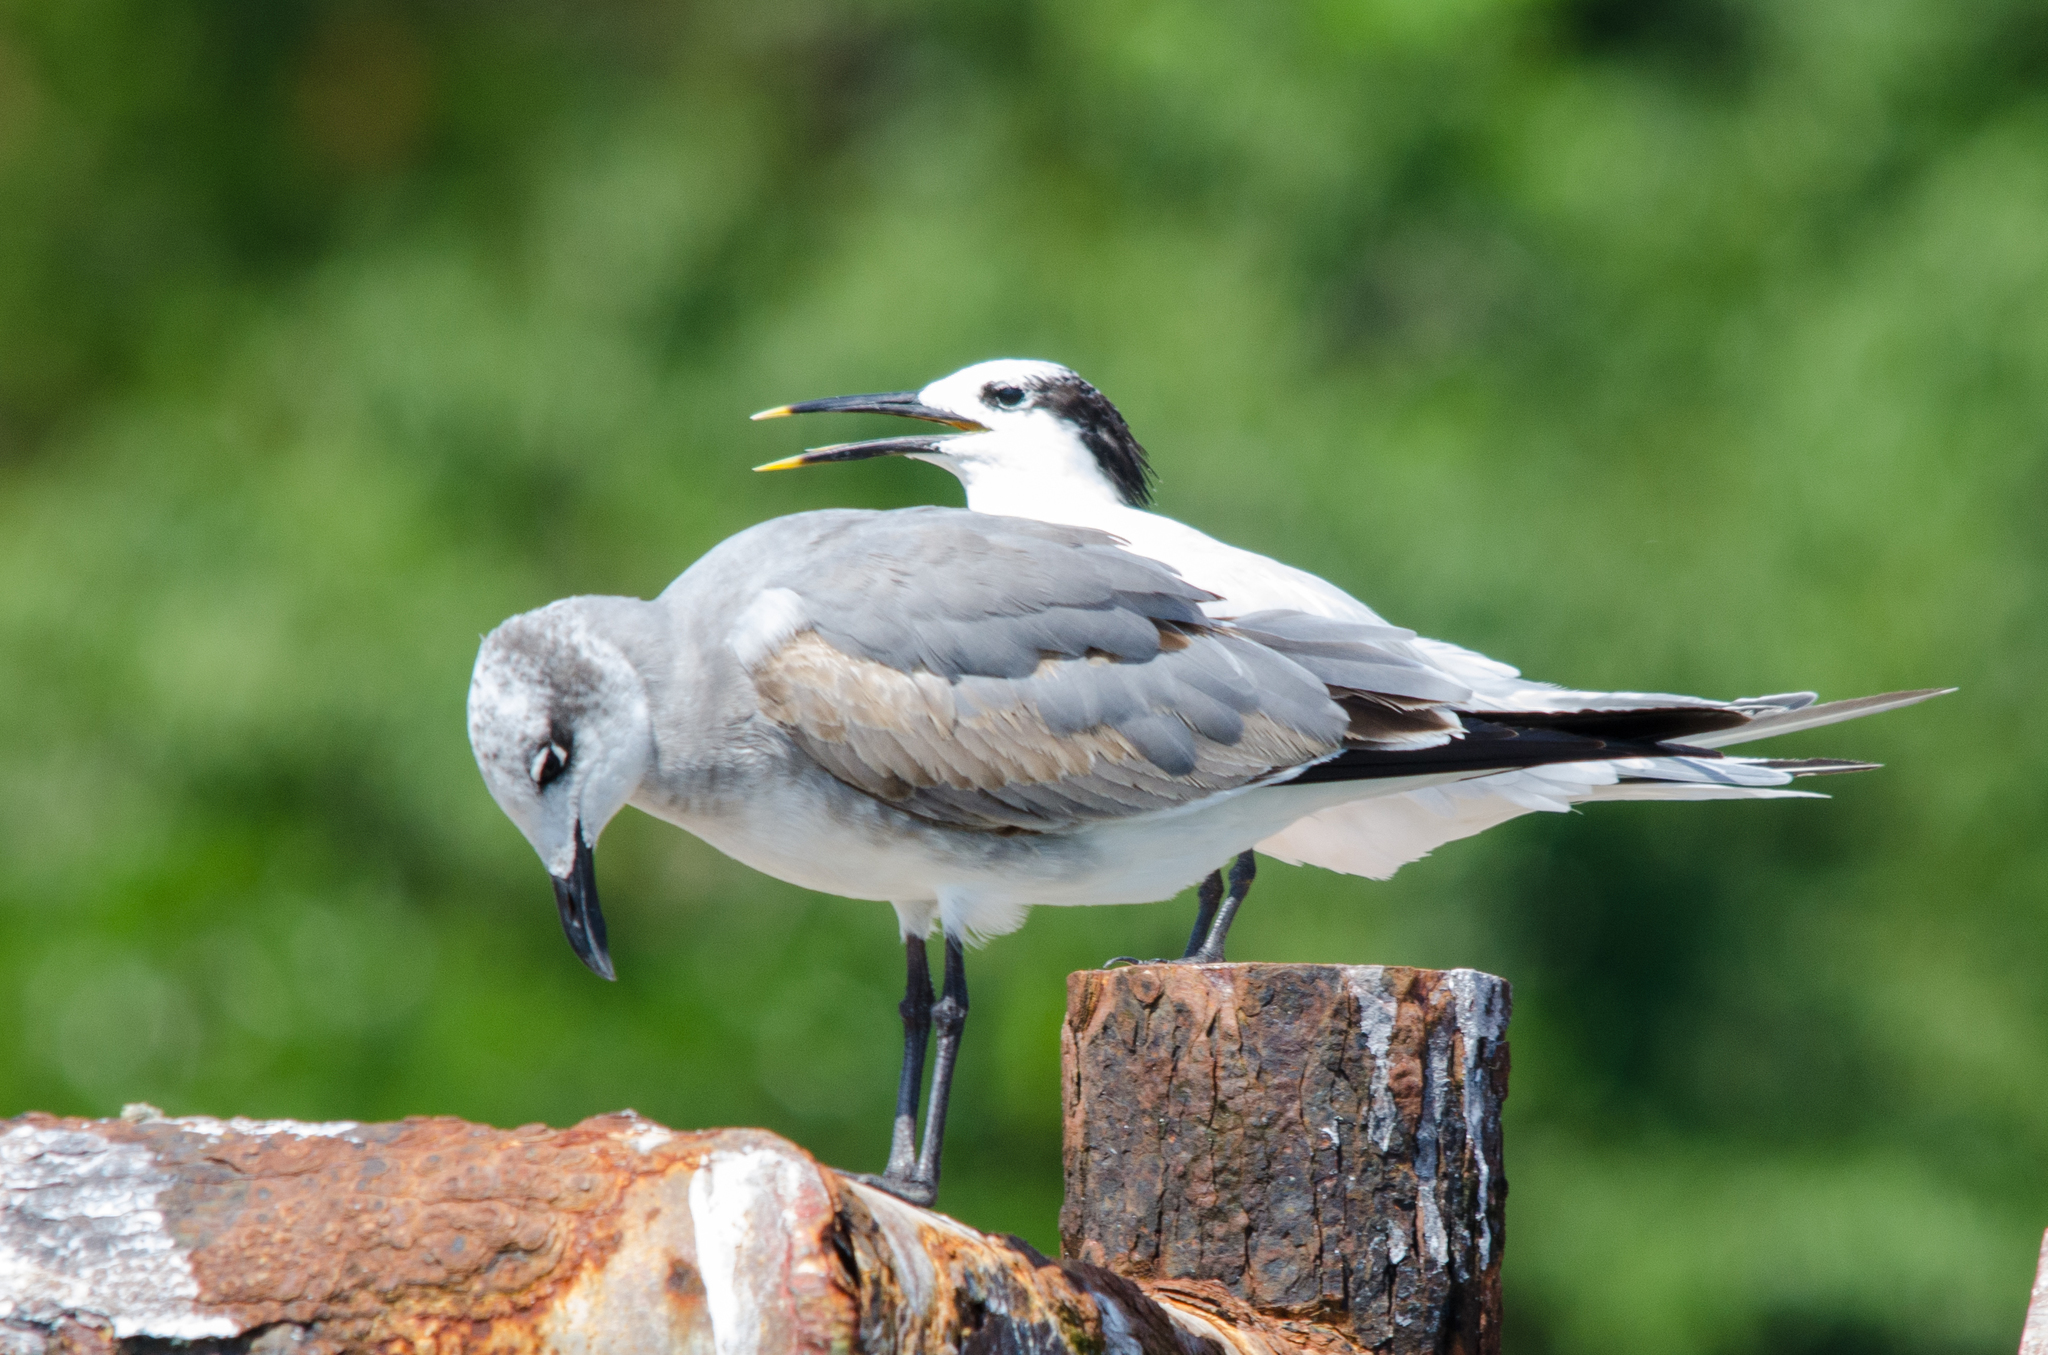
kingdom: Animalia
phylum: Chordata
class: Aves
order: Charadriiformes
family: Laridae
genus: Leucophaeus
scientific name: Leucophaeus atricilla
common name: Laughing gull
